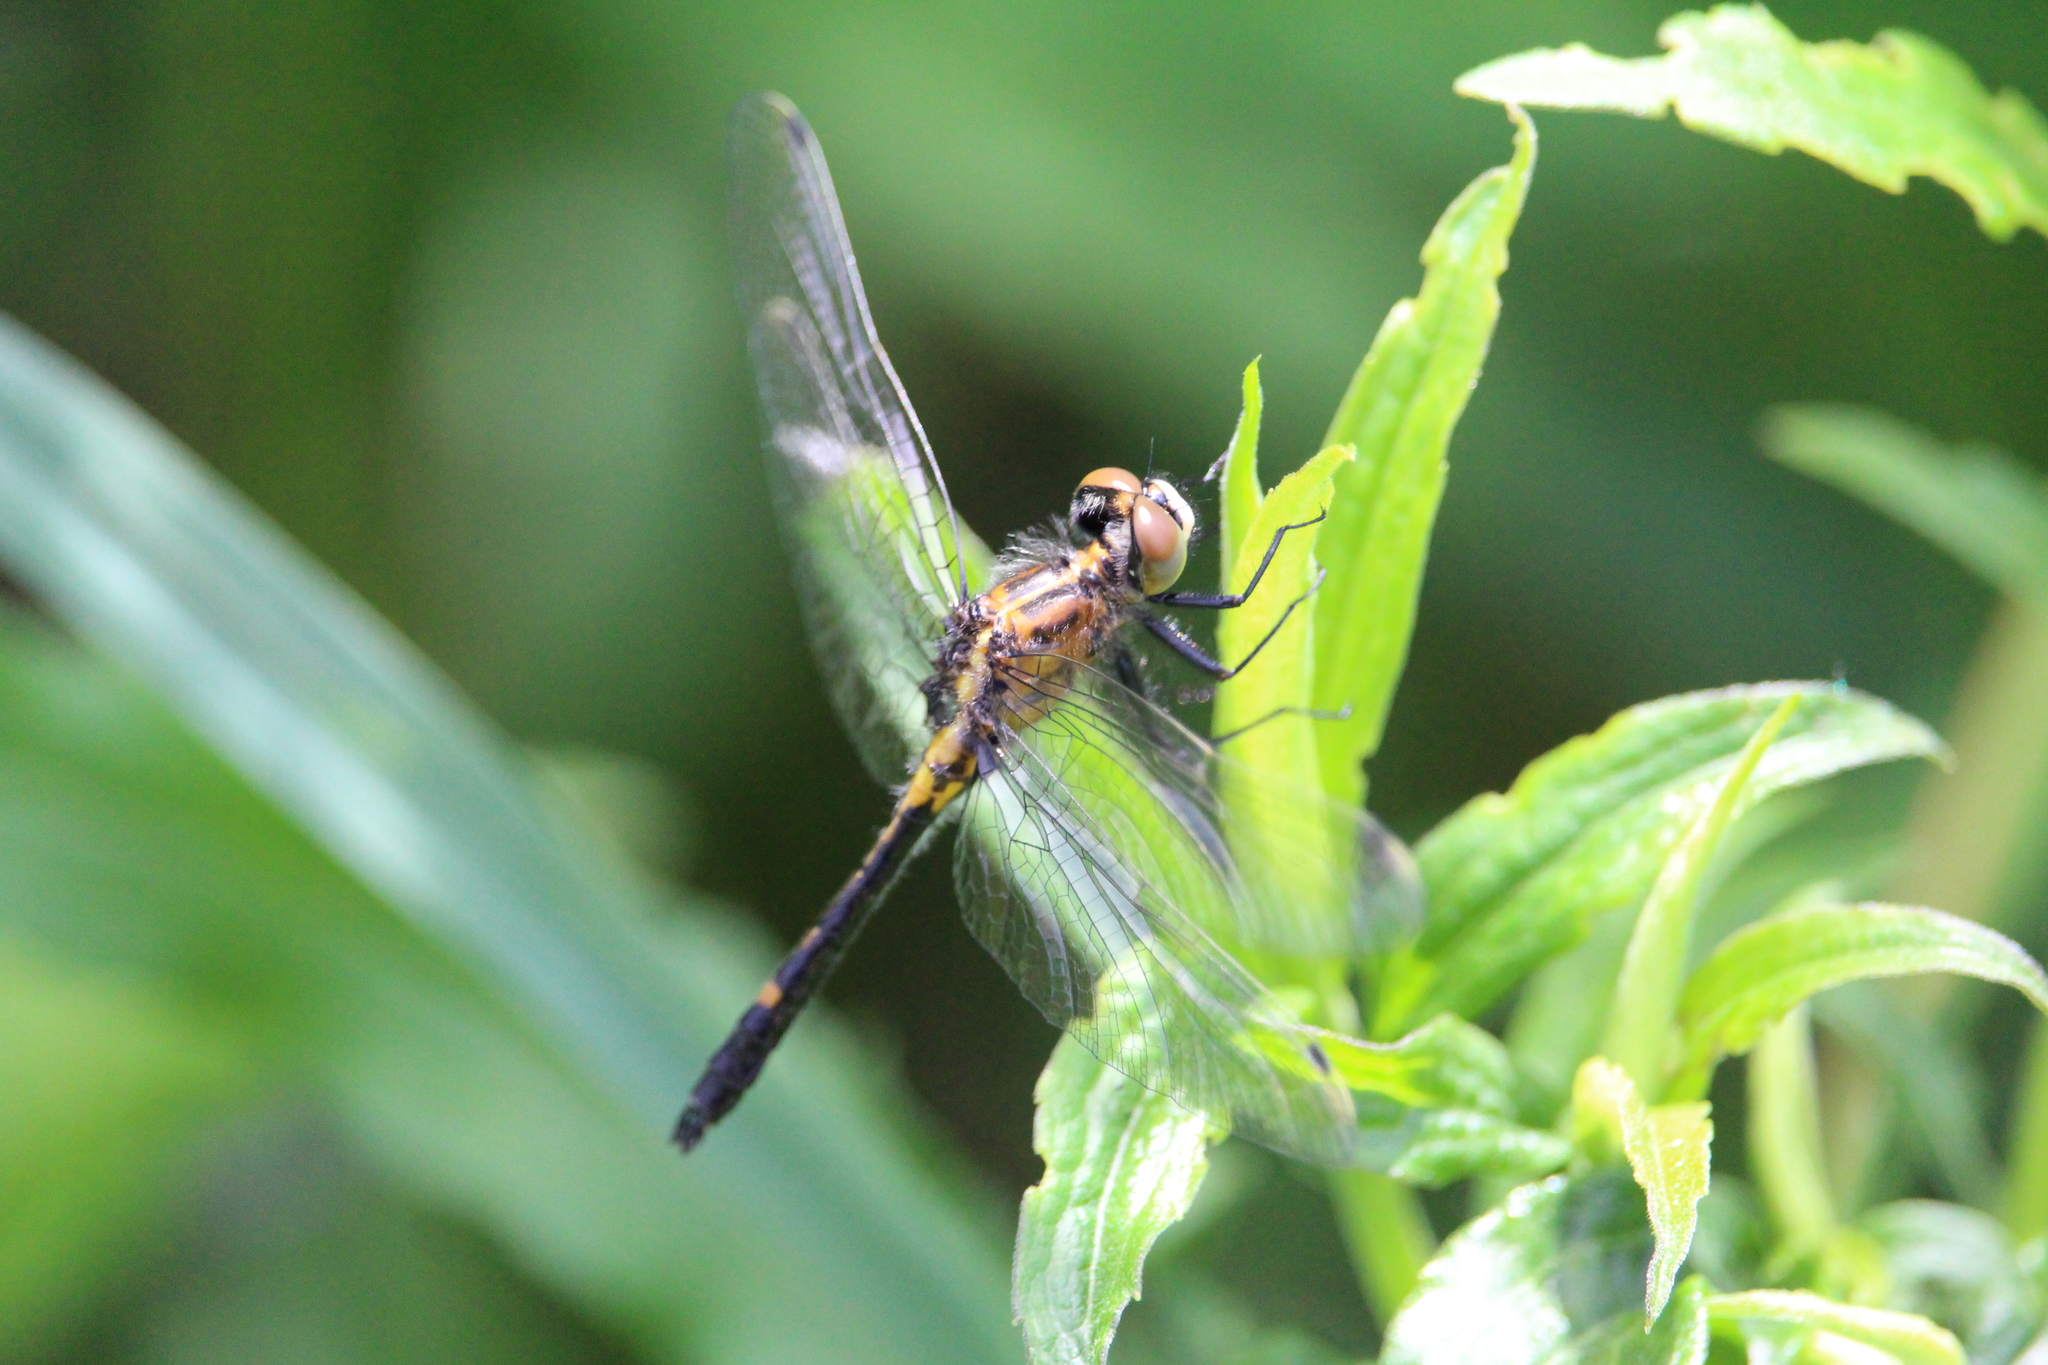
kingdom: Animalia
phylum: Arthropoda
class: Insecta
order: Odonata
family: Libellulidae
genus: Leucorrhinia
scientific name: Leucorrhinia intacta
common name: Dot-tailed whiteface
